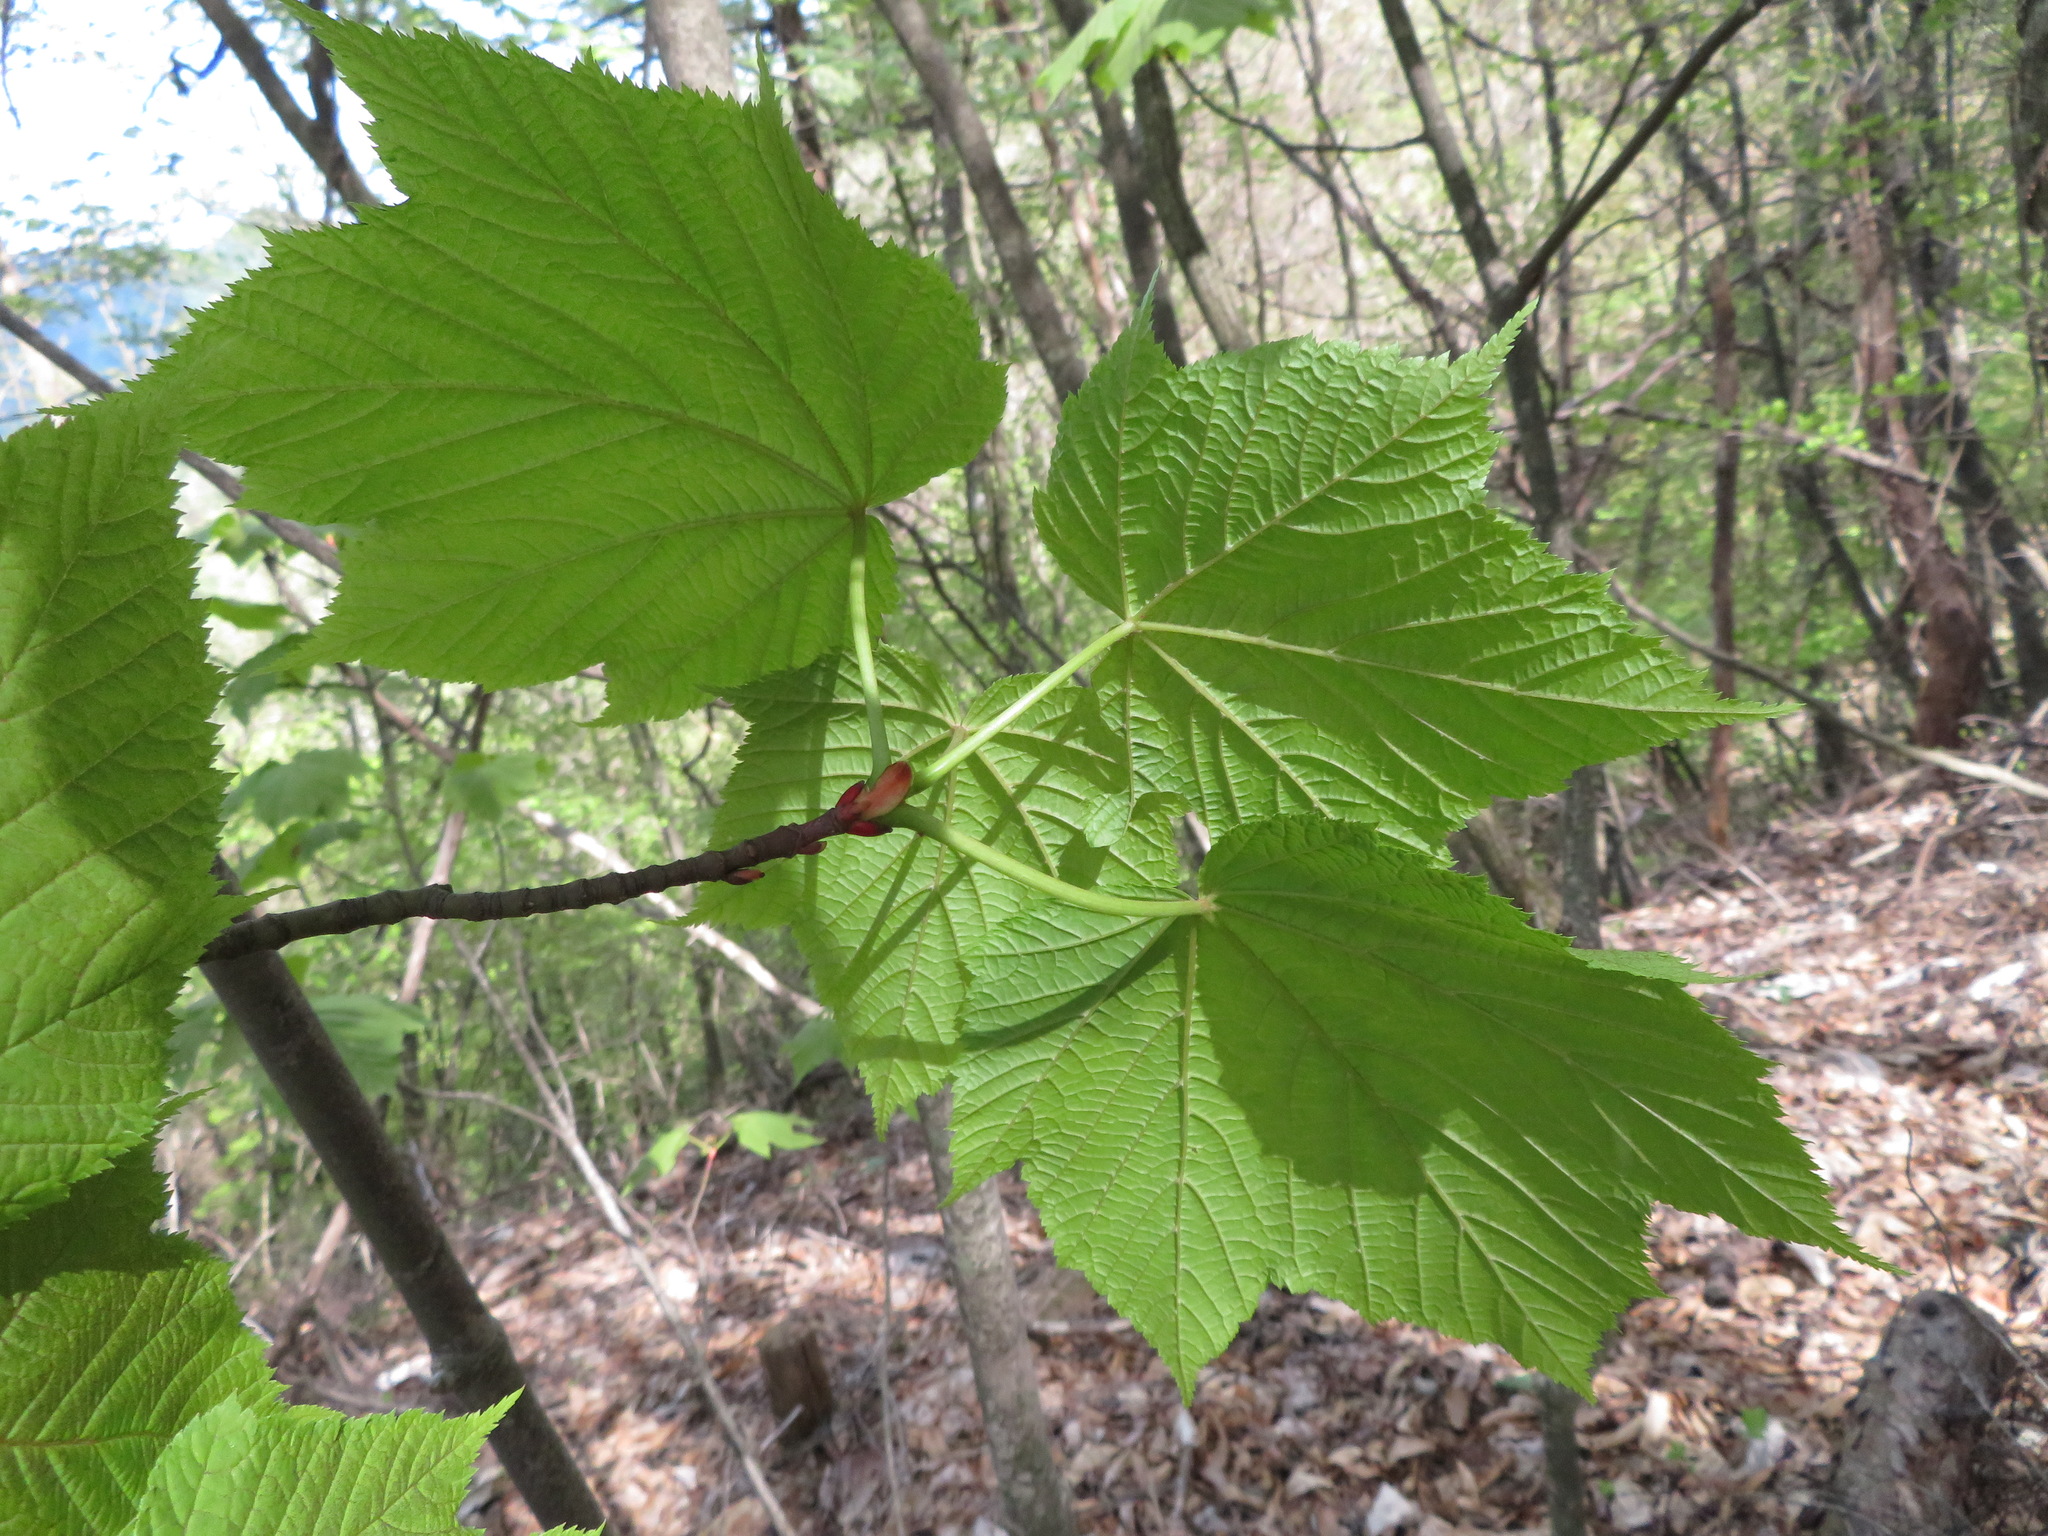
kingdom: Plantae
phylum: Tracheophyta
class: Magnoliopsida
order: Sapindales
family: Sapindaceae
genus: Acer
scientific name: Acer nipponicum
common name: Nippon maple
